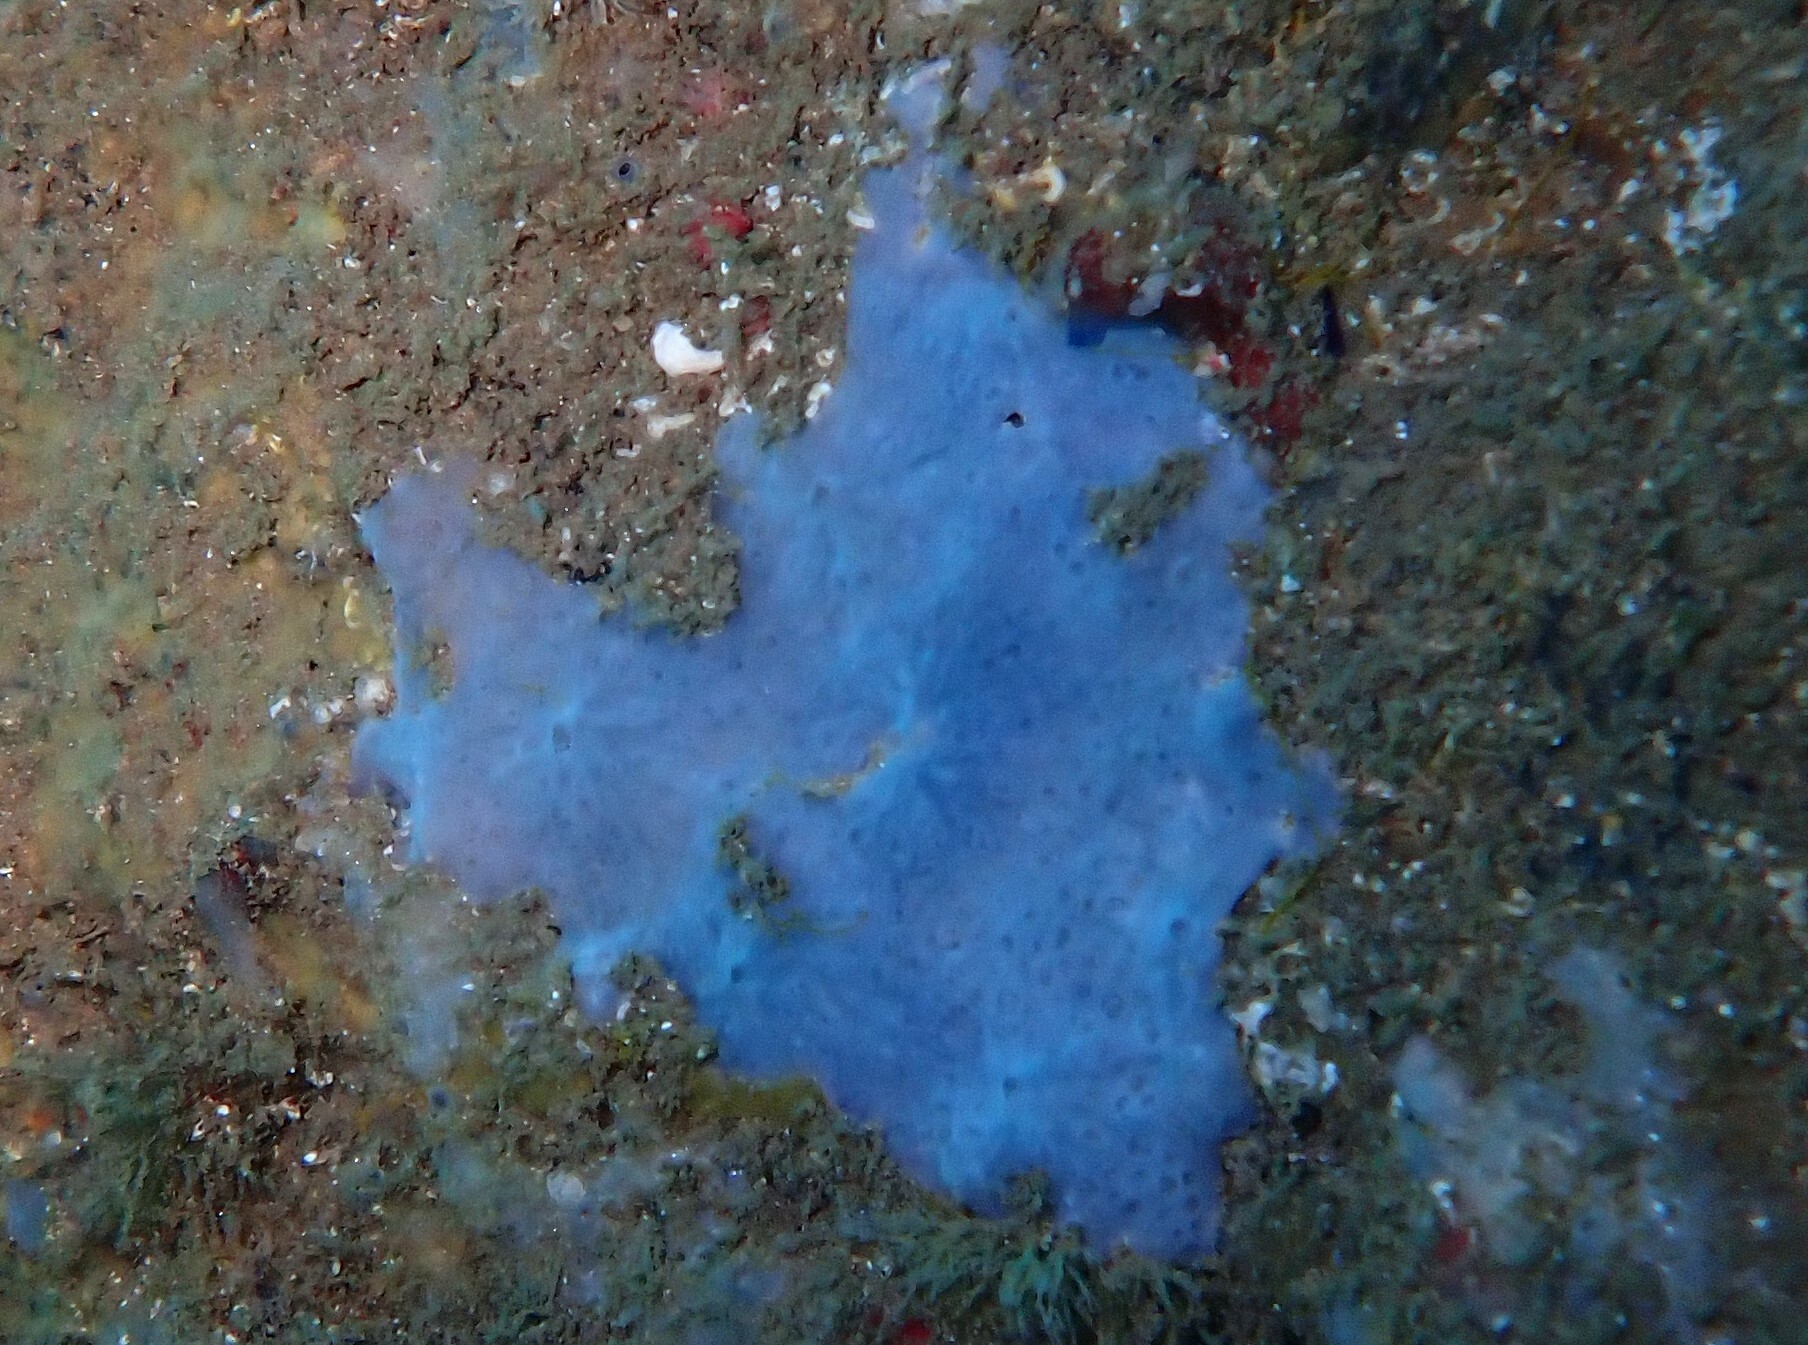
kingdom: Animalia
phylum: Porifera
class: Demospongiae
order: Poecilosclerida
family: Hymedesmiidae
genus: Phorbas
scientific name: Phorbas tenacior
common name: Bluish encrusting sponge
